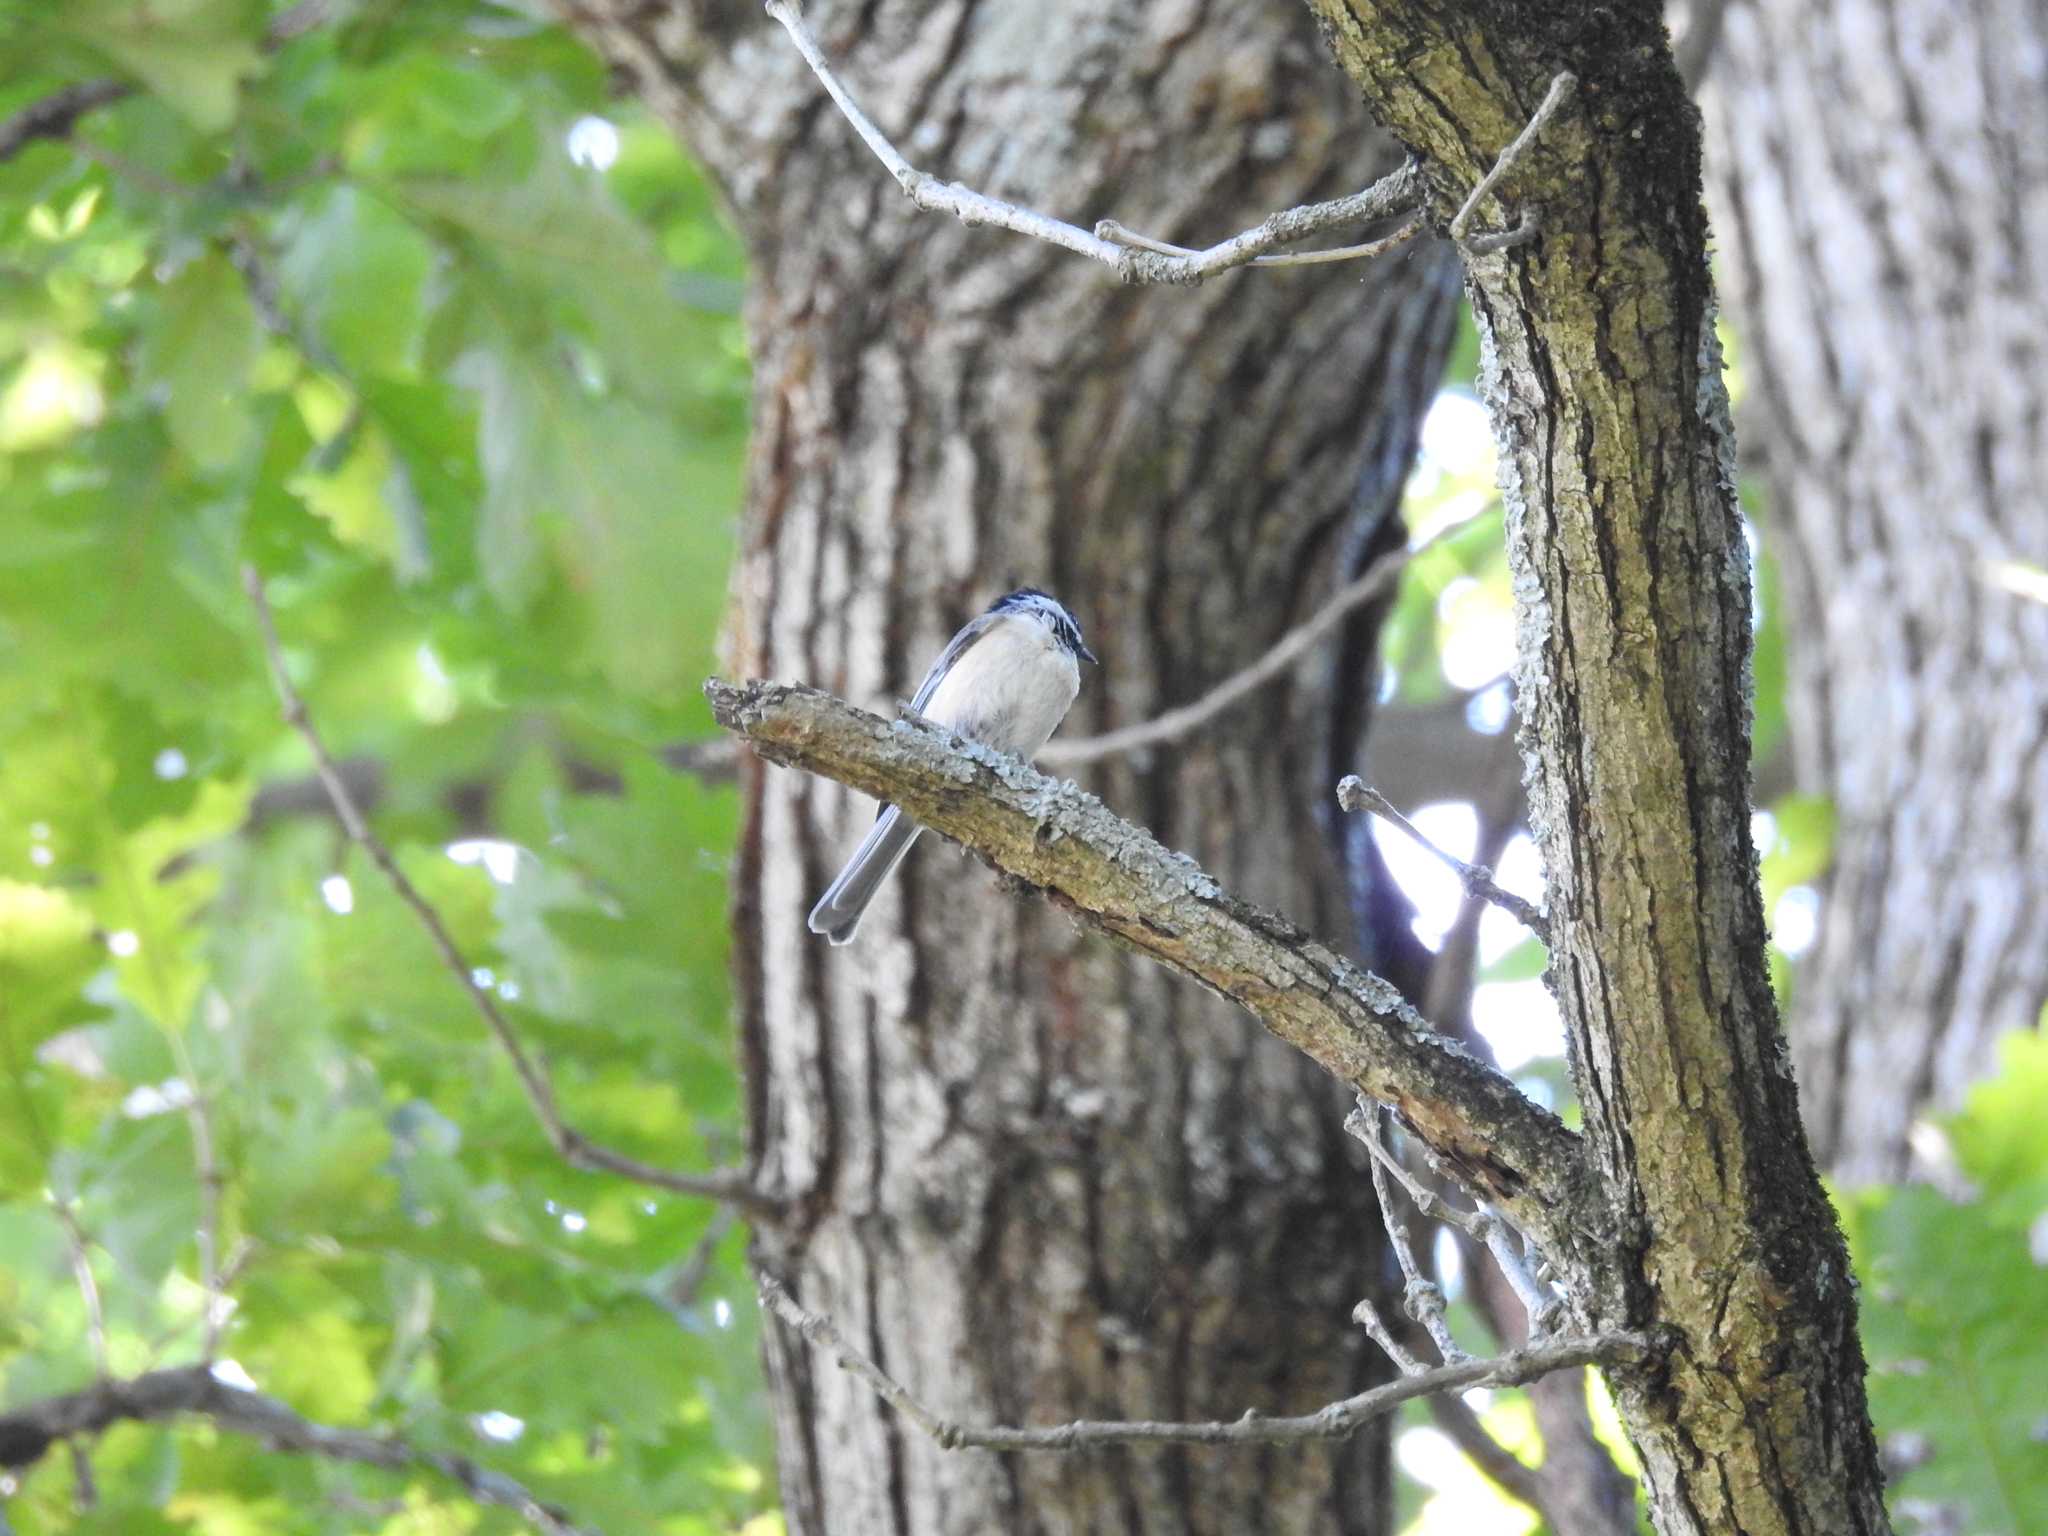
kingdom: Animalia
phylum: Chordata
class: Aves
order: Passeriformes
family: Paridae
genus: Poecile
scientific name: Poecile carolinensis
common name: Carolina chickadee
